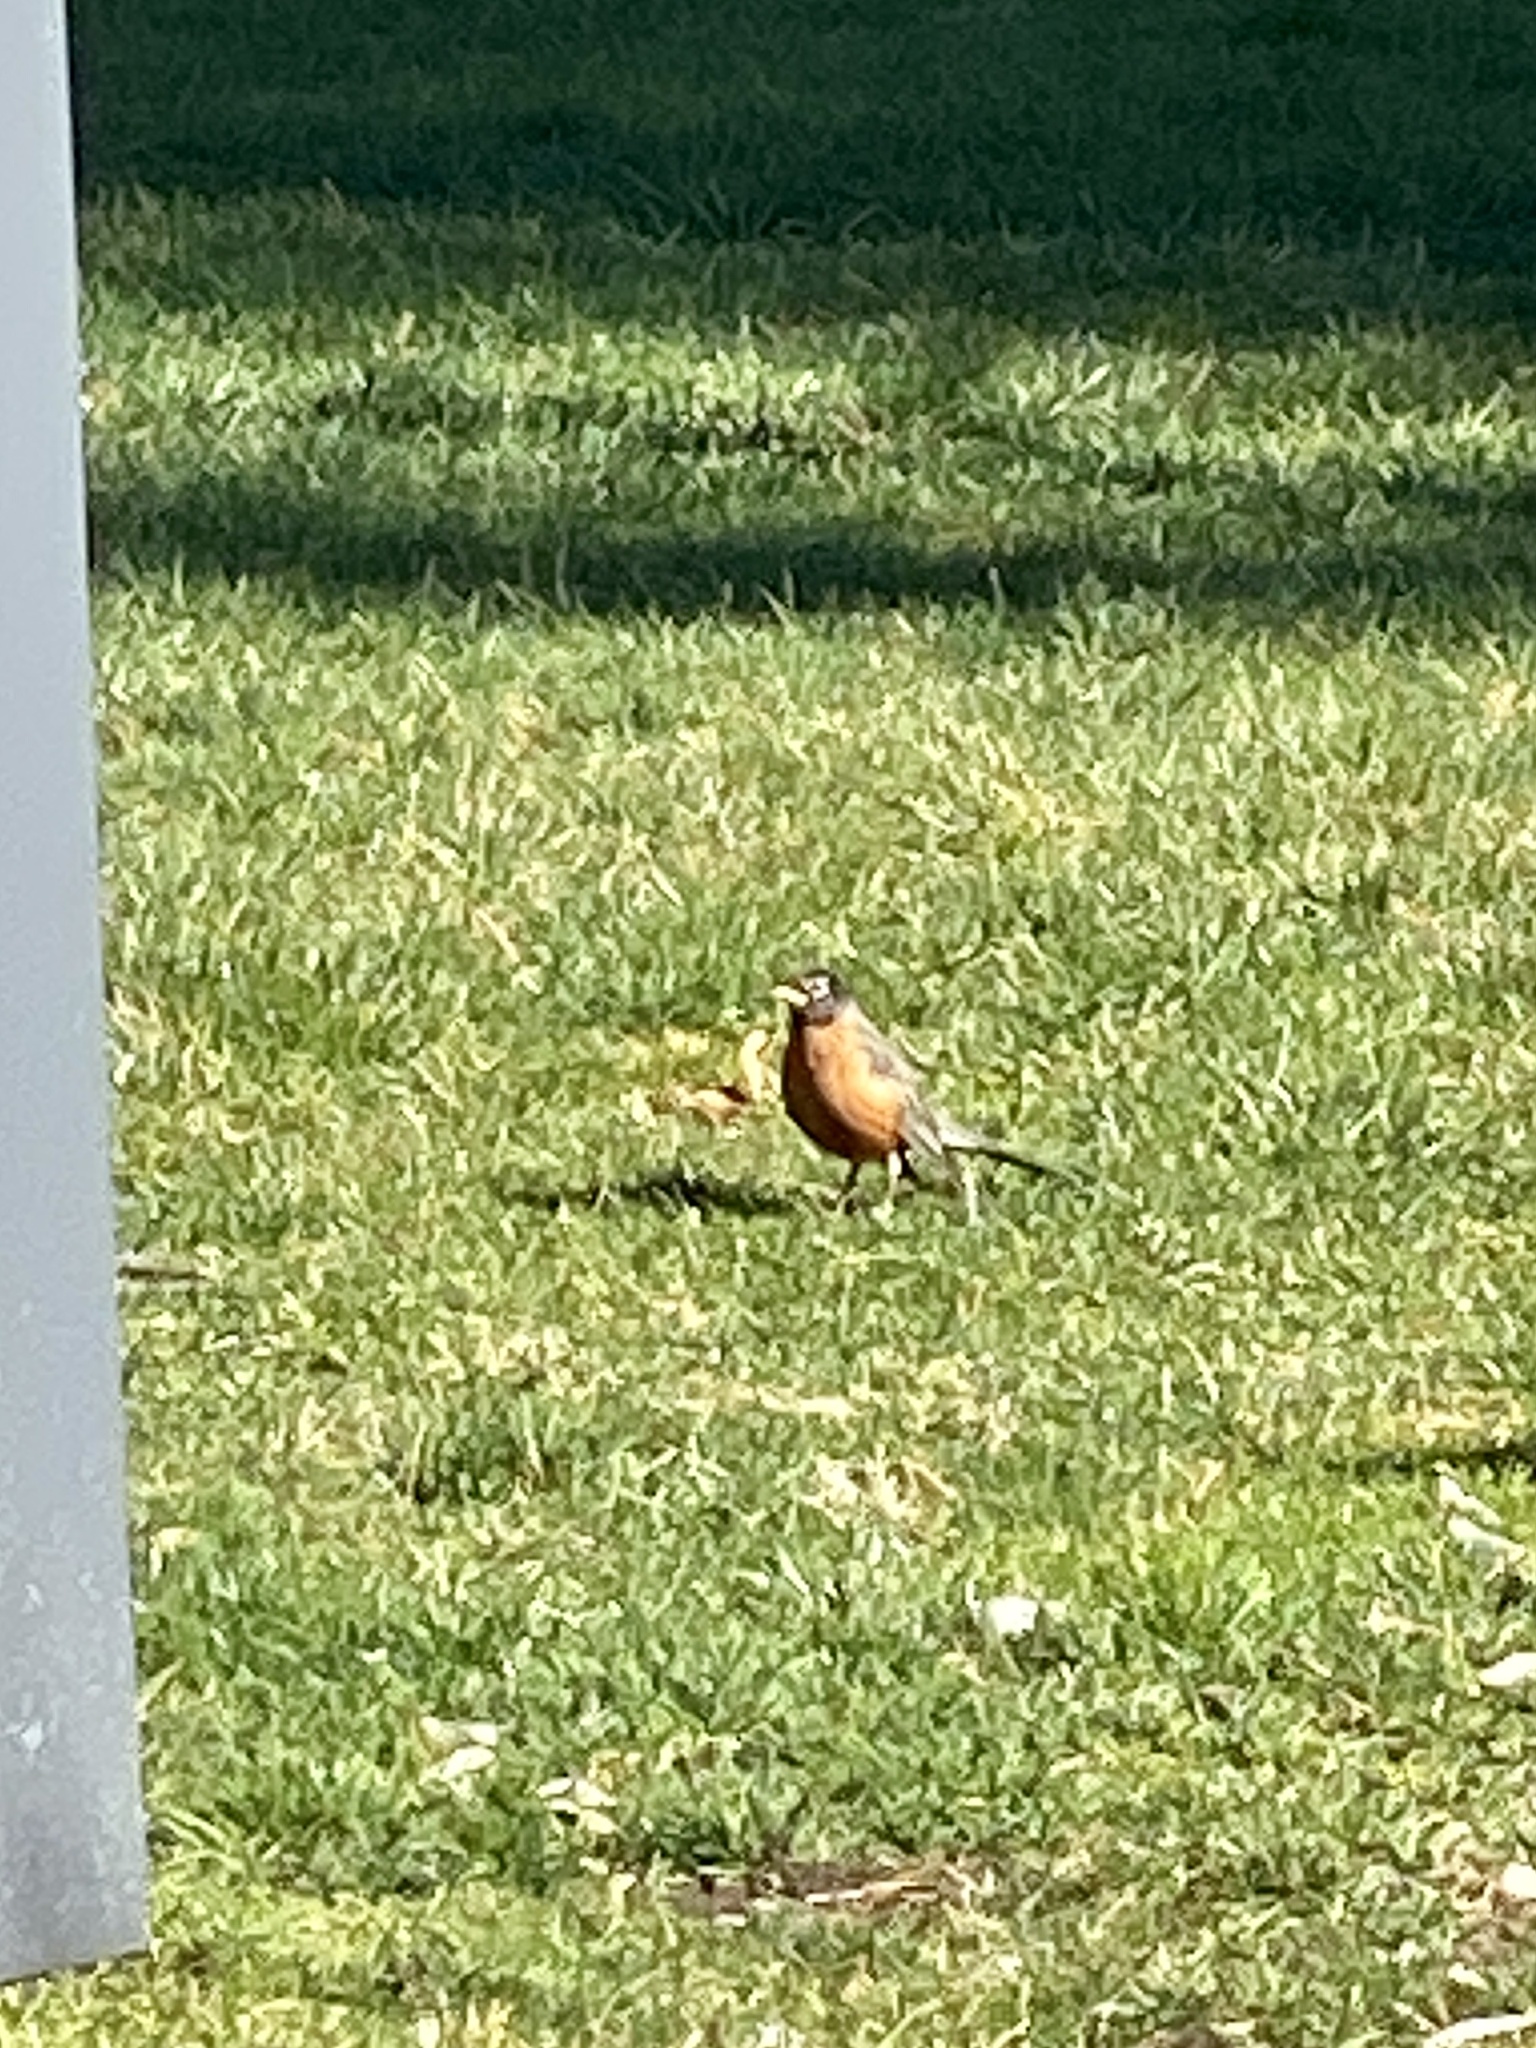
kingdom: Animalia
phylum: Chordata
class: Aves
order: Passeriformes
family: Turdidae
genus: Turdus
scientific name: Turdus migratorius
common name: American robin
